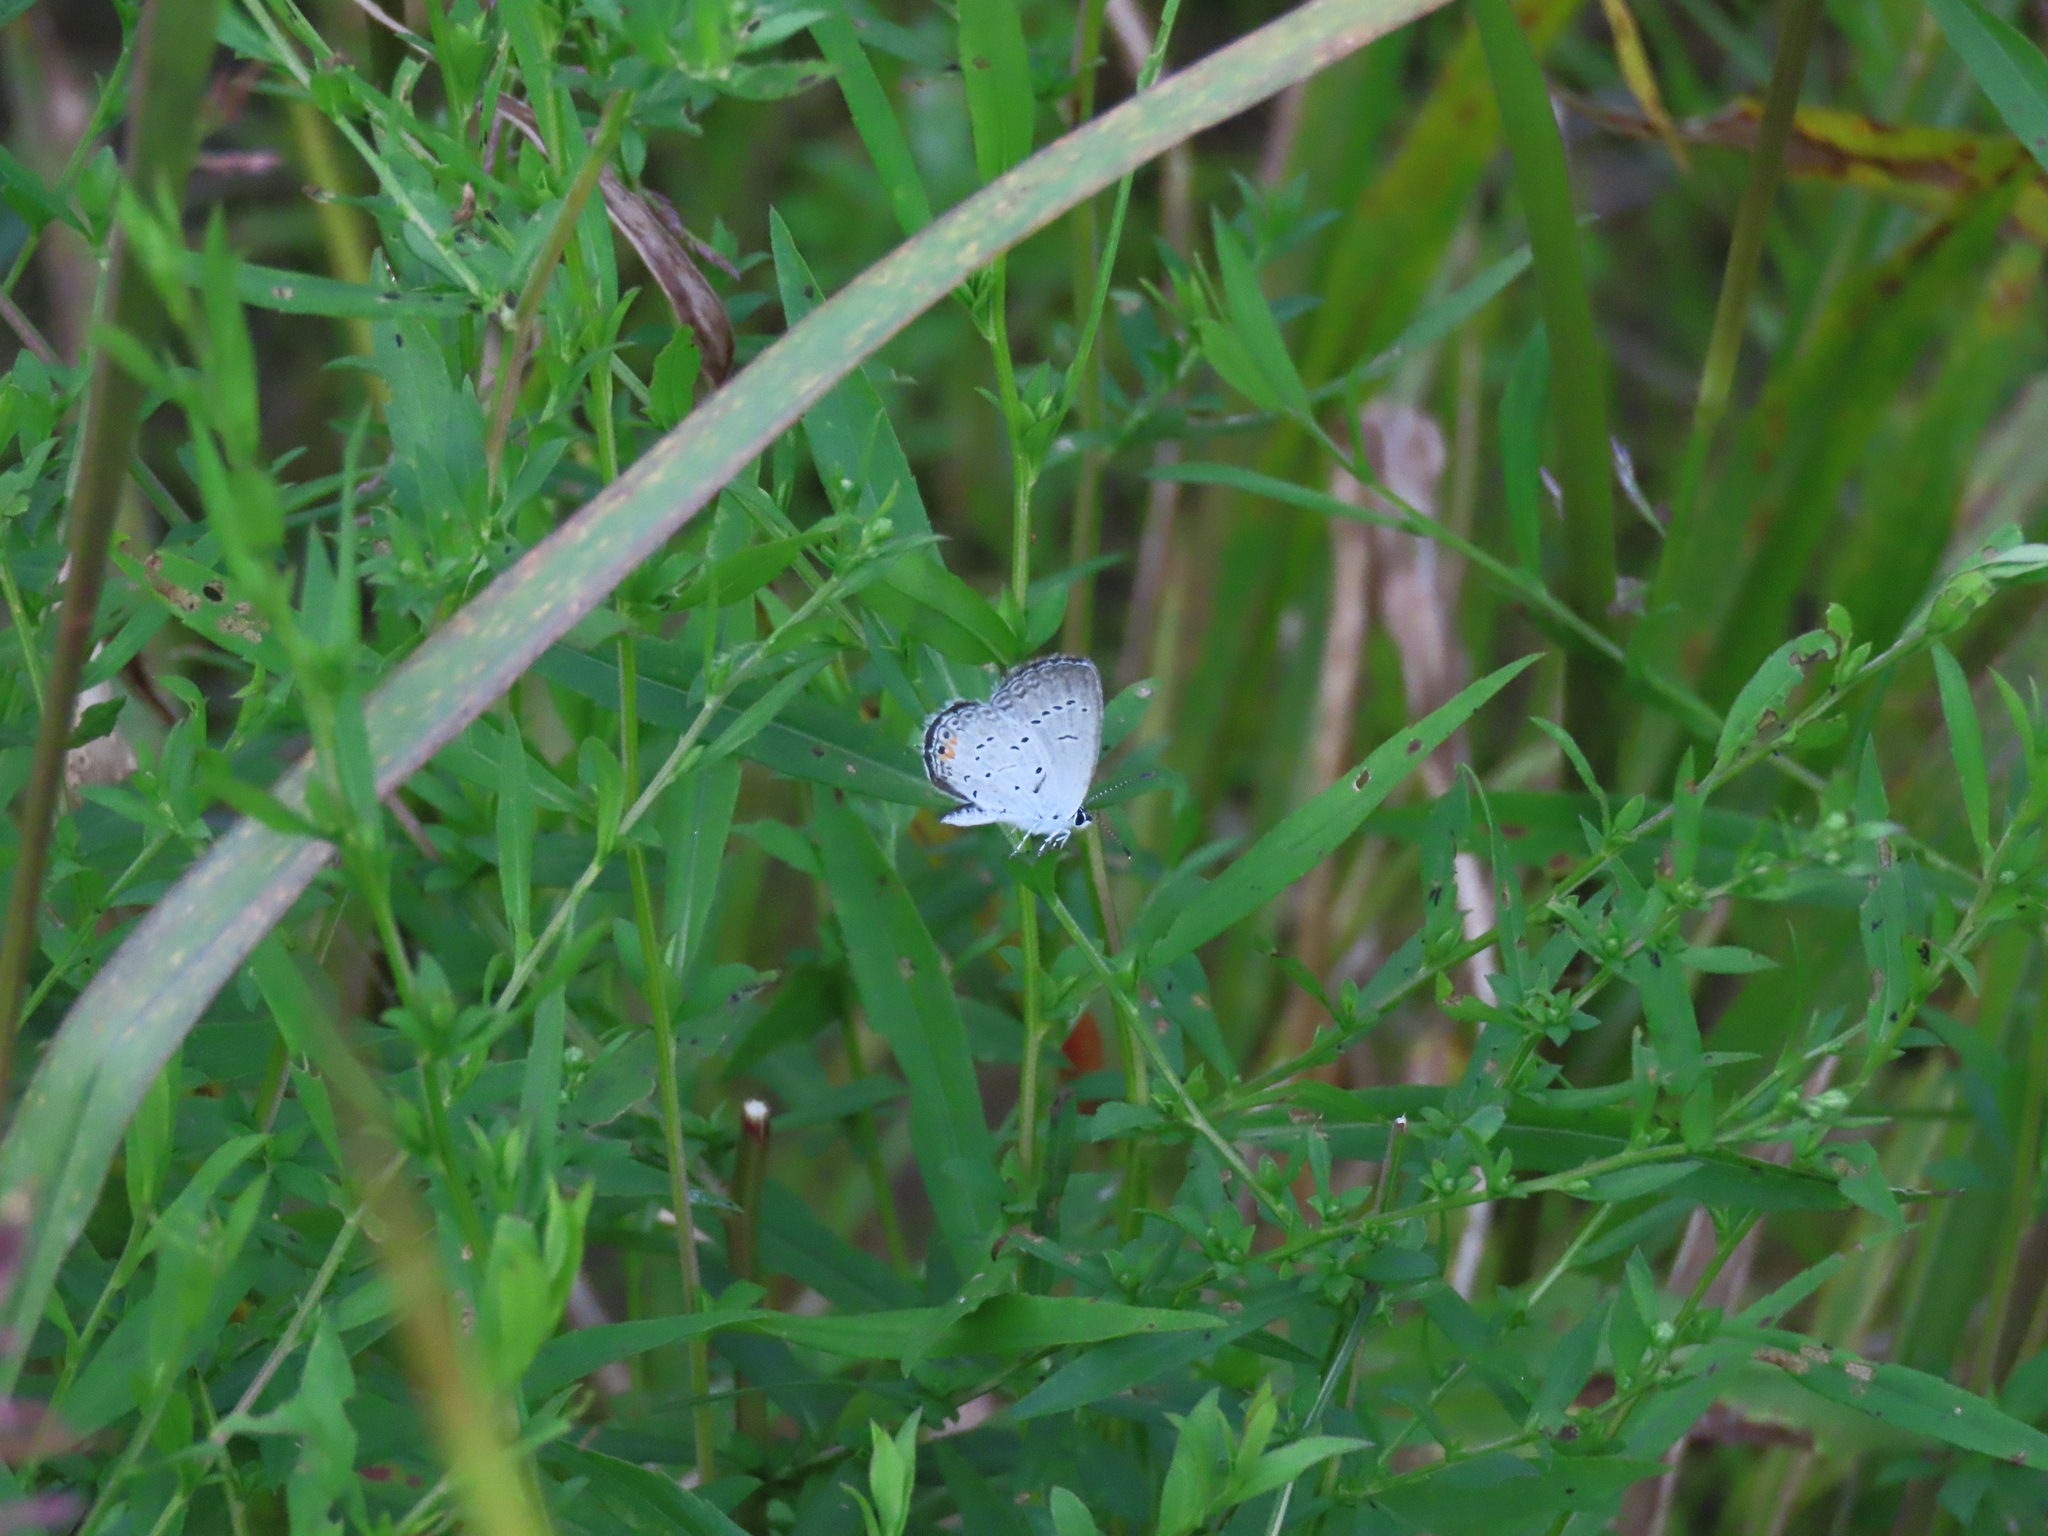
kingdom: Animalia
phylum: Arthropoda
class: Insecta
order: Lepidoptera
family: Lycaenidae
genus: Elkalyce
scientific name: Elkalyce comyntas
